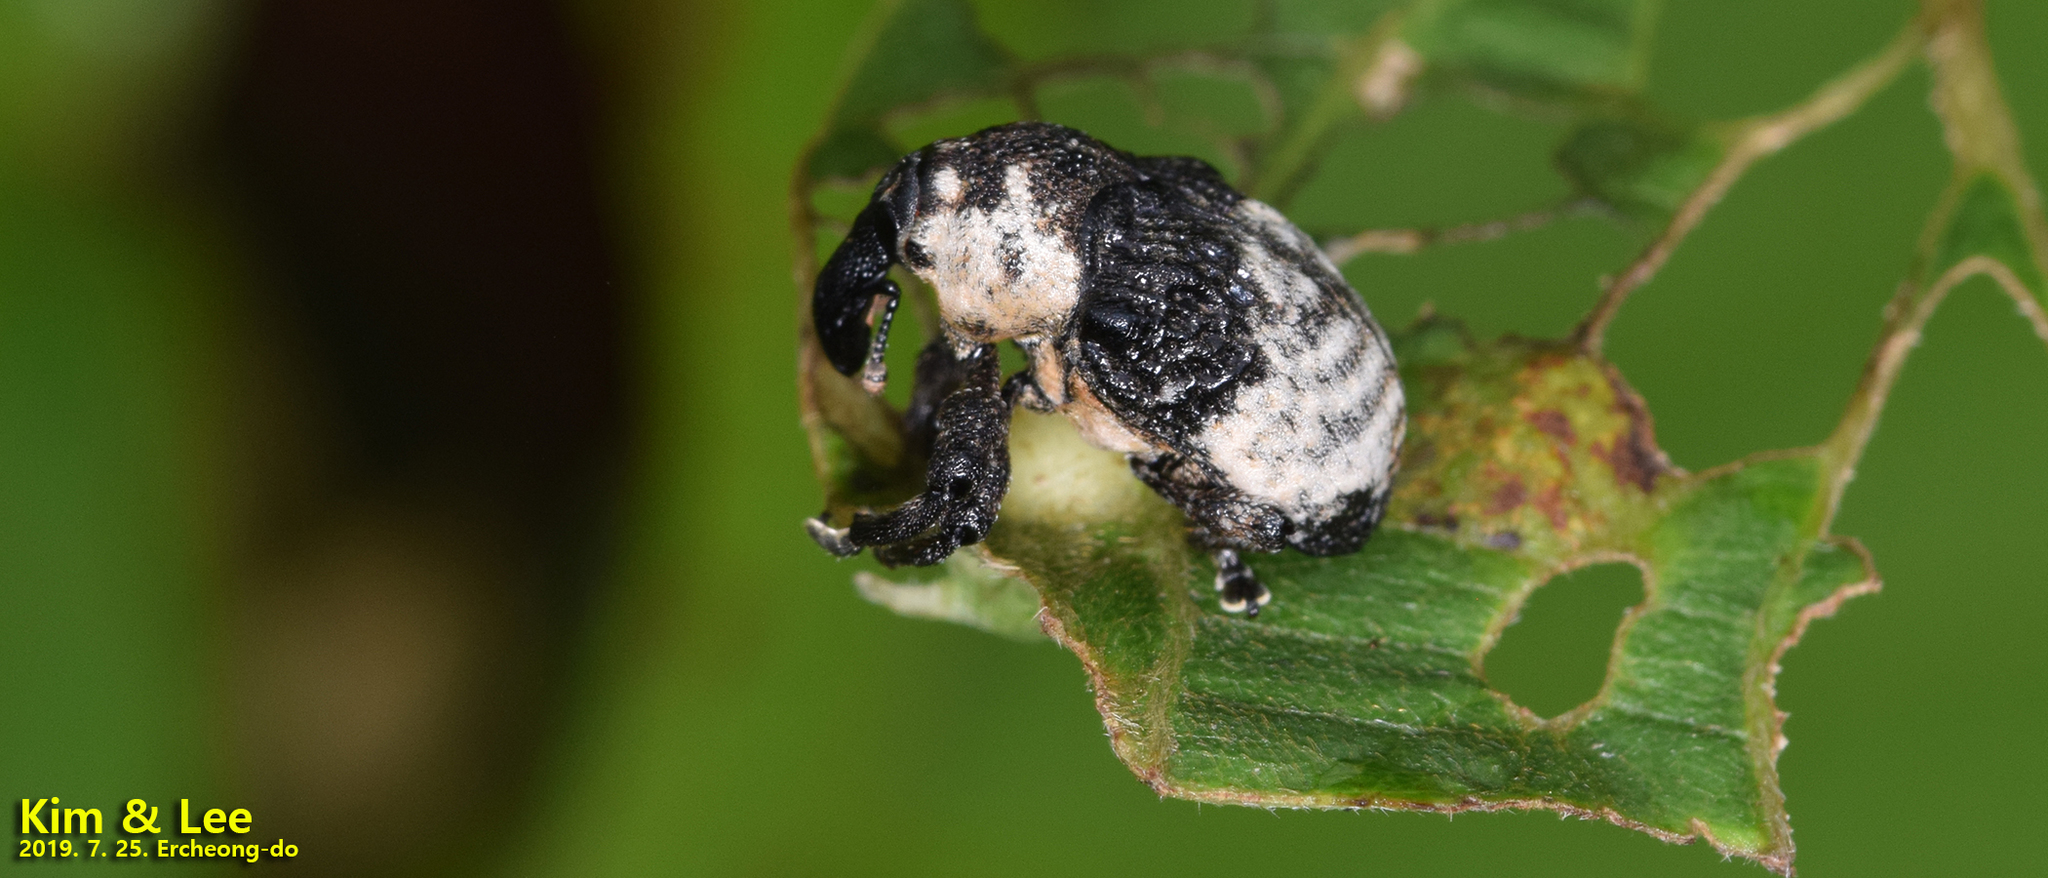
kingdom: Animalia
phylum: Arthropoda
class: Insecta
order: Coleoptera
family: Curculionidae
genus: Alcides
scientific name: Alcides trifidus
